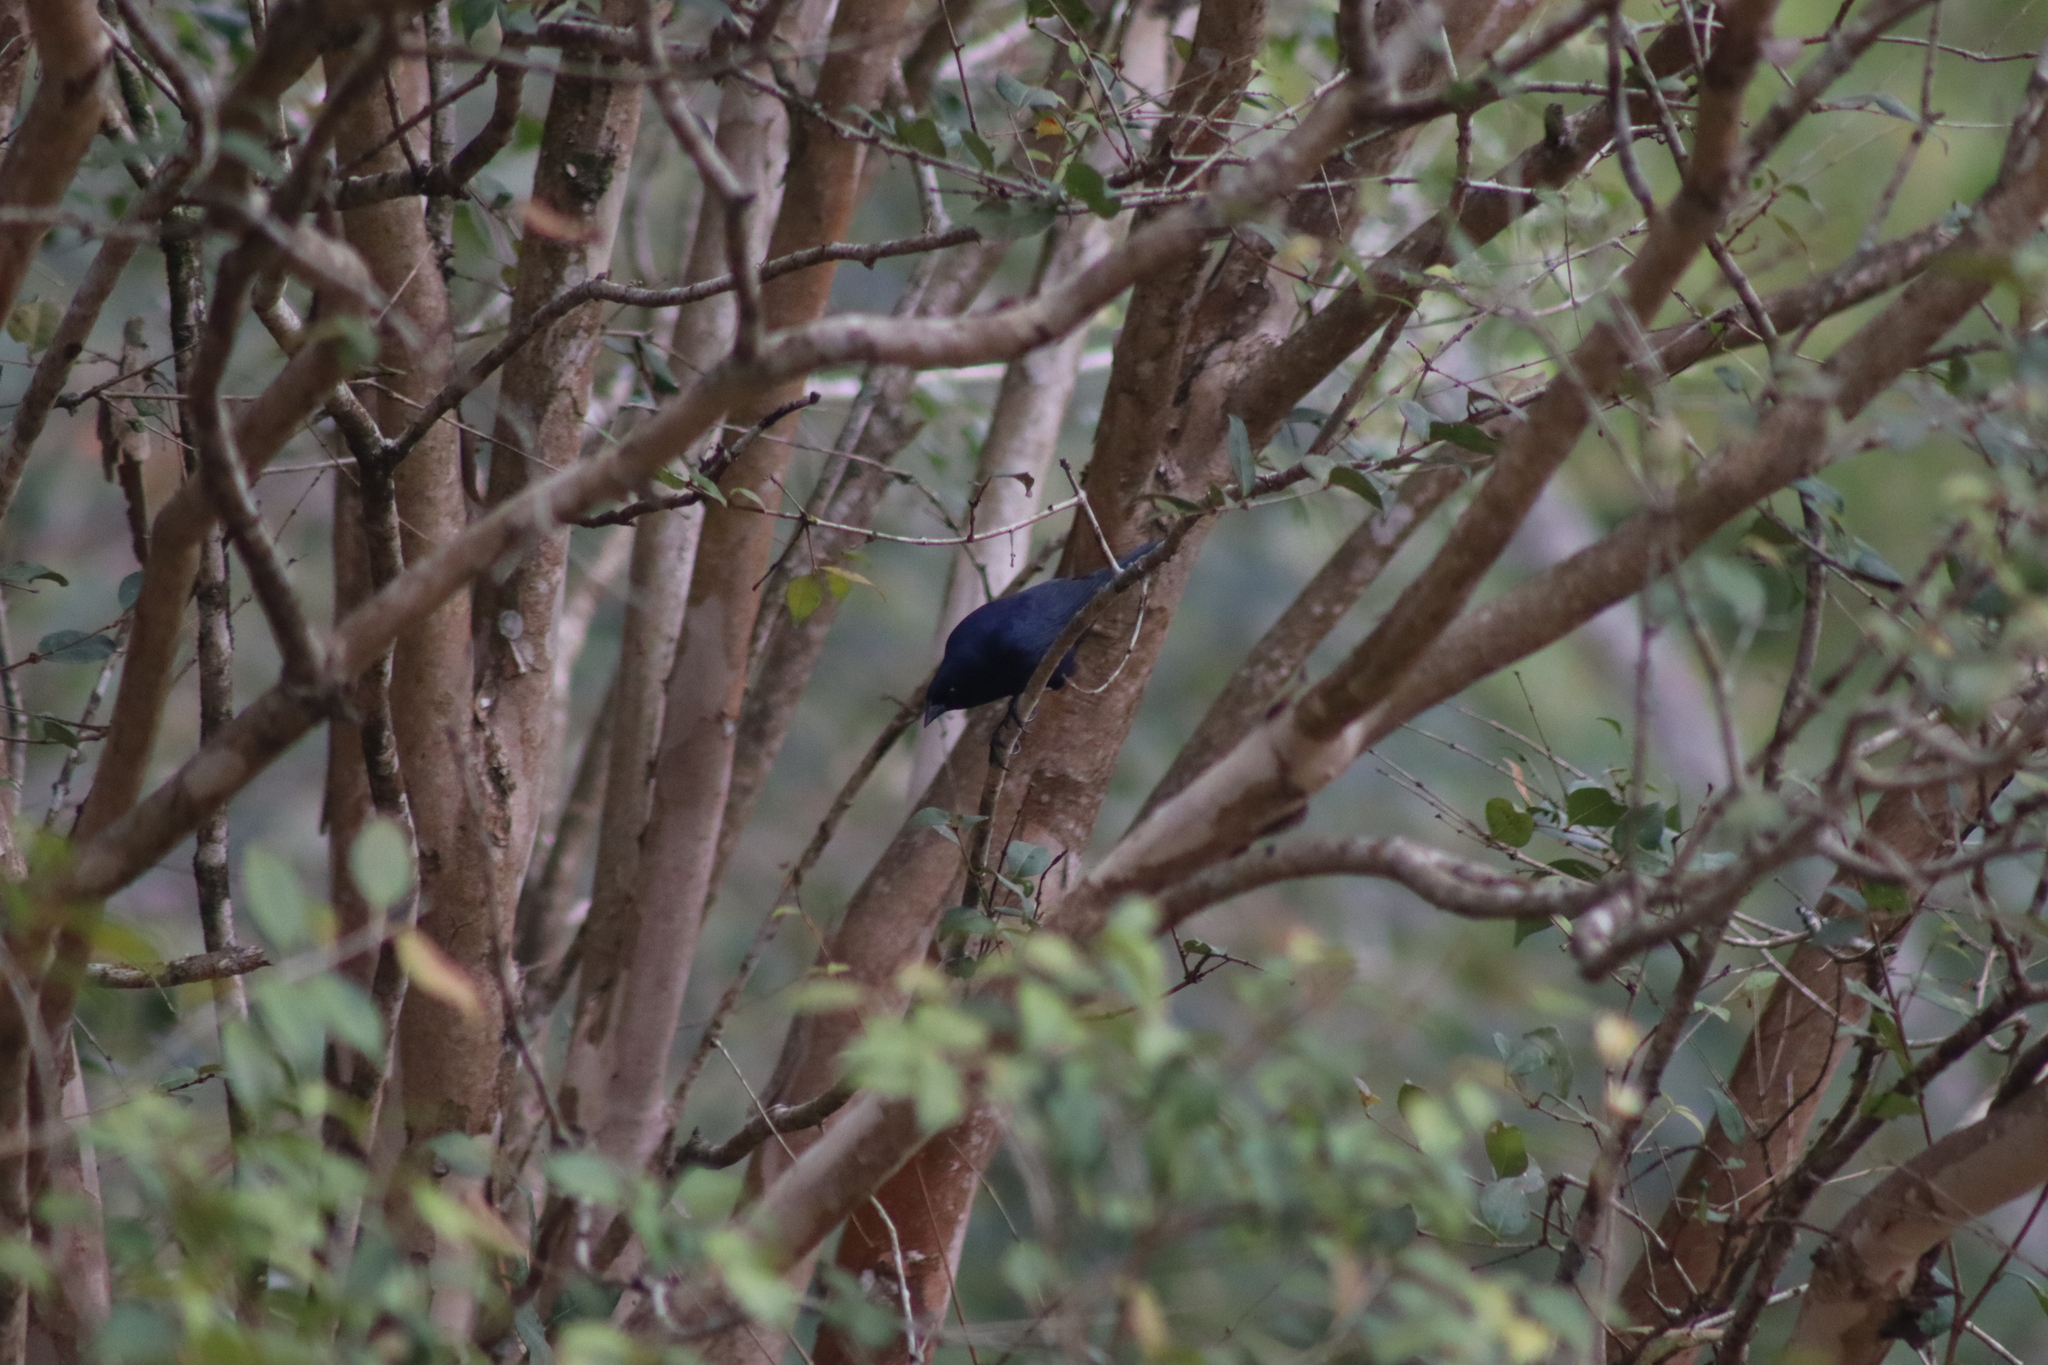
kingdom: Animalia
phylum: Chordata
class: Aves
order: Passeriformes
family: Icteridae
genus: Molothrus
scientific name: Molothrus bonariensis
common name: Shiny cowbird
